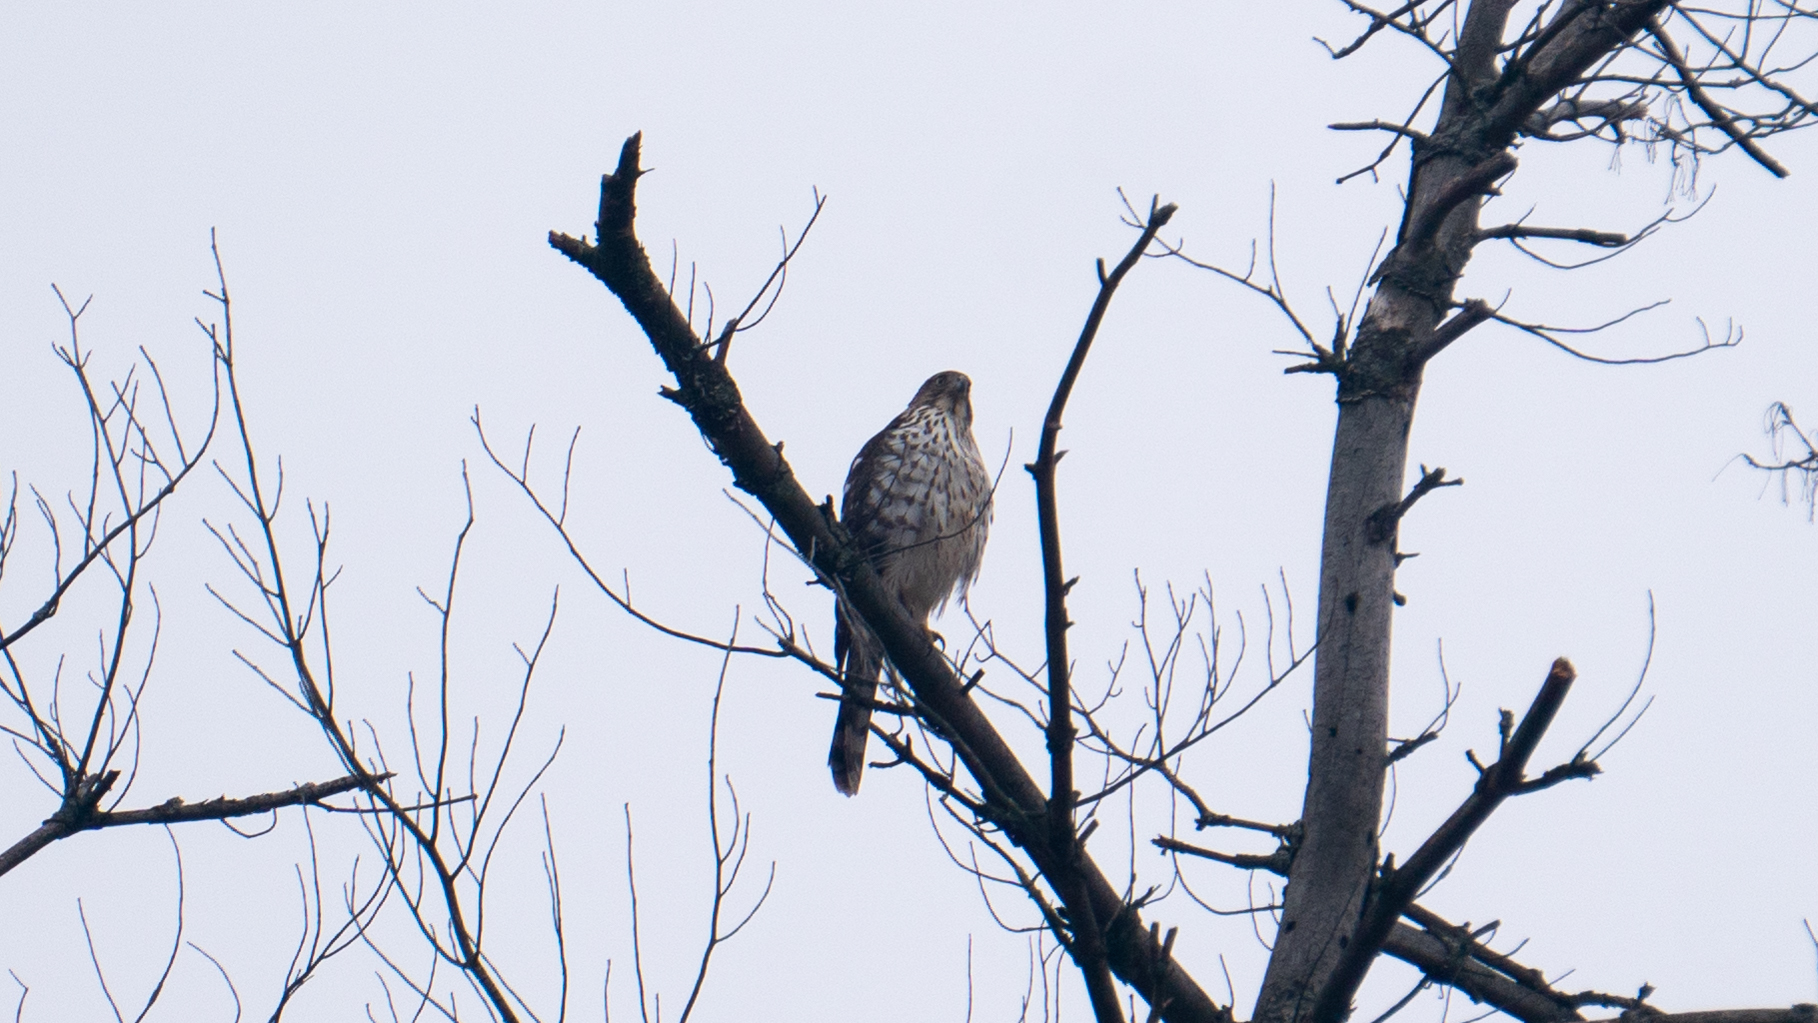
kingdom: Animalia
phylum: Chordata
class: Aves
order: Accipitriformes
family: Accipitridae
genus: Accipiter
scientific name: Accipiter cooperii
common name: Cooper's hawk
